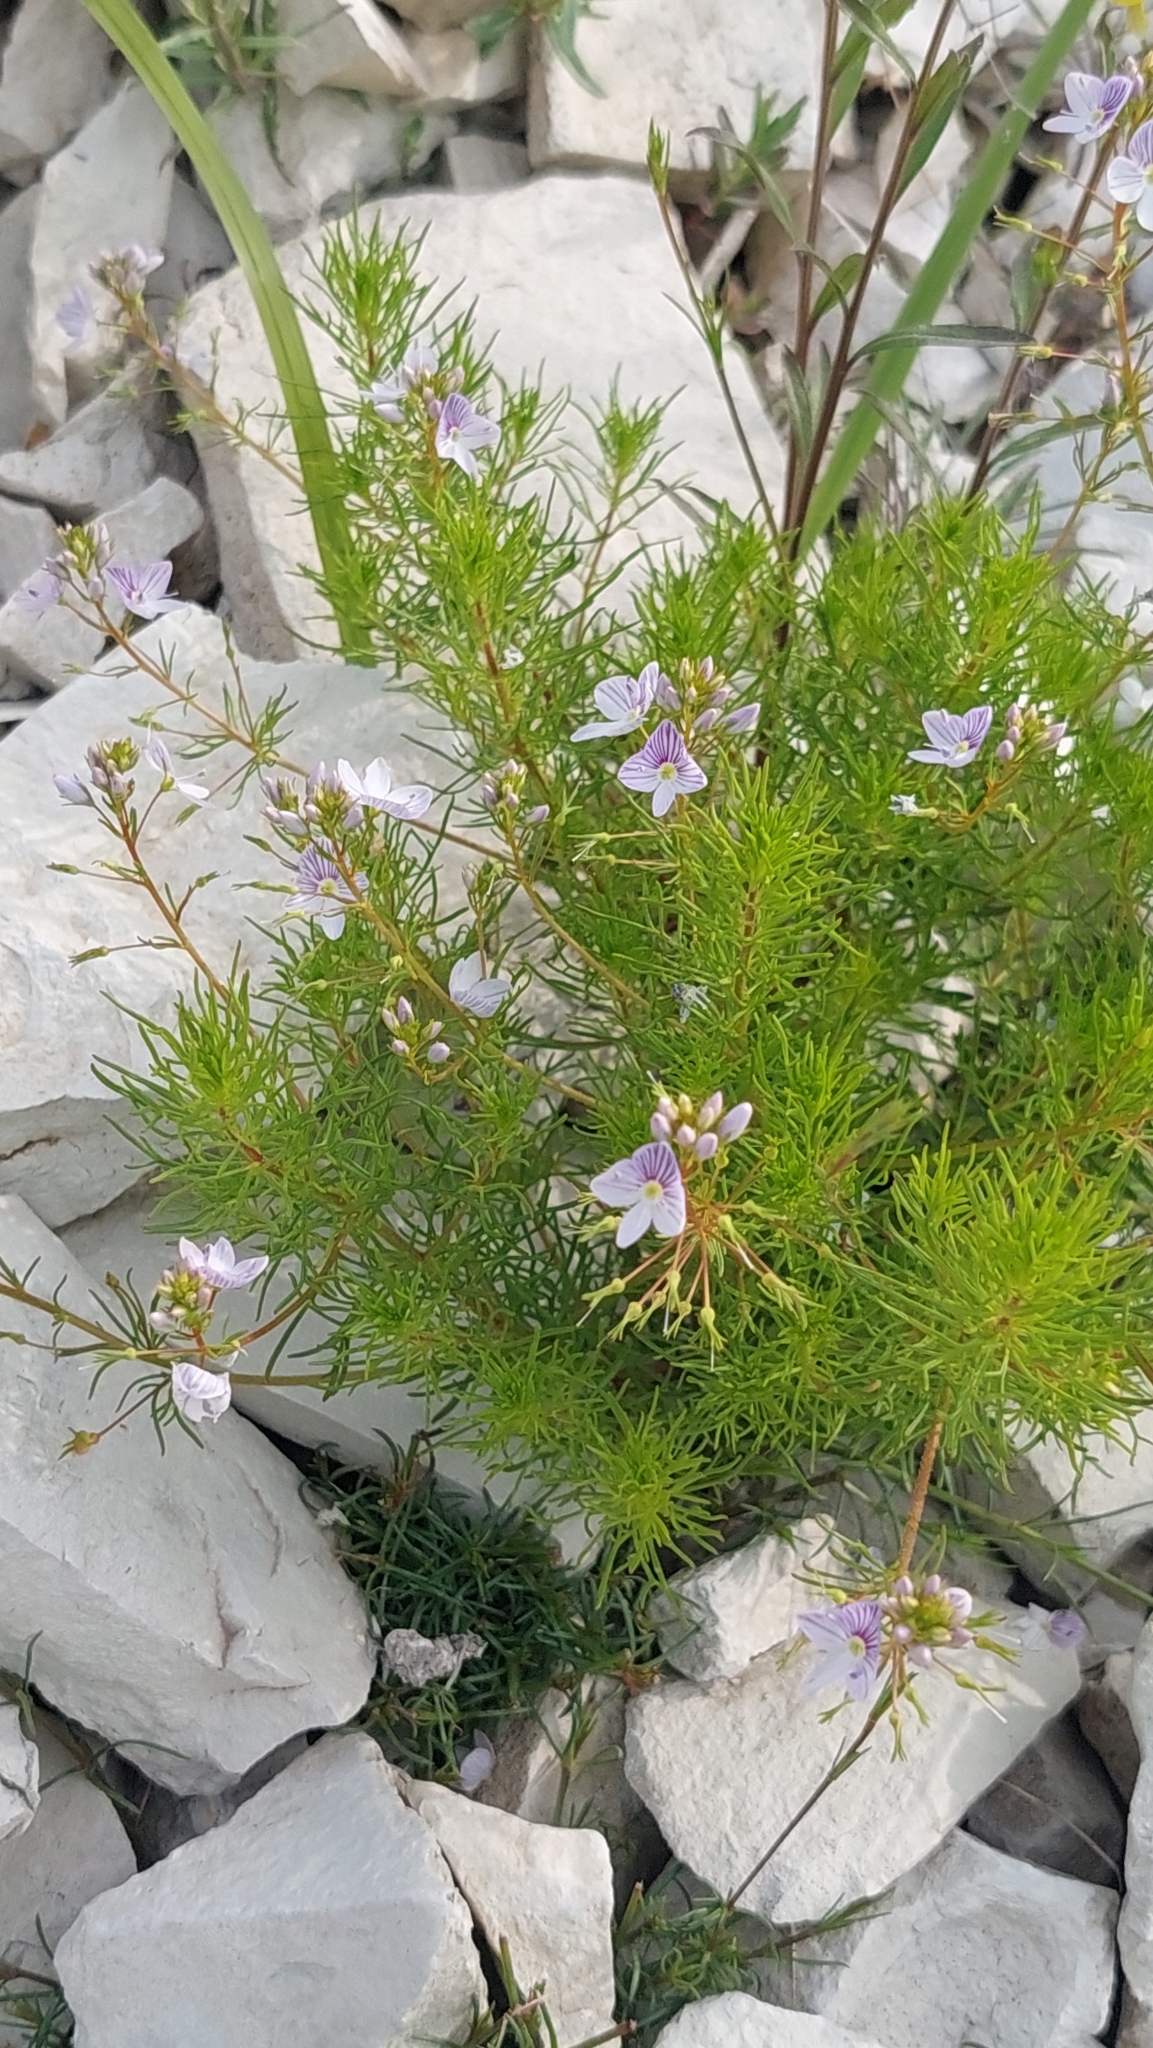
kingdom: Plantae
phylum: Tracheophyta
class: Magnoliopsida
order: Lamiales
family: Plantaginaceae
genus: Veronica
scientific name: Veronica filifolia
